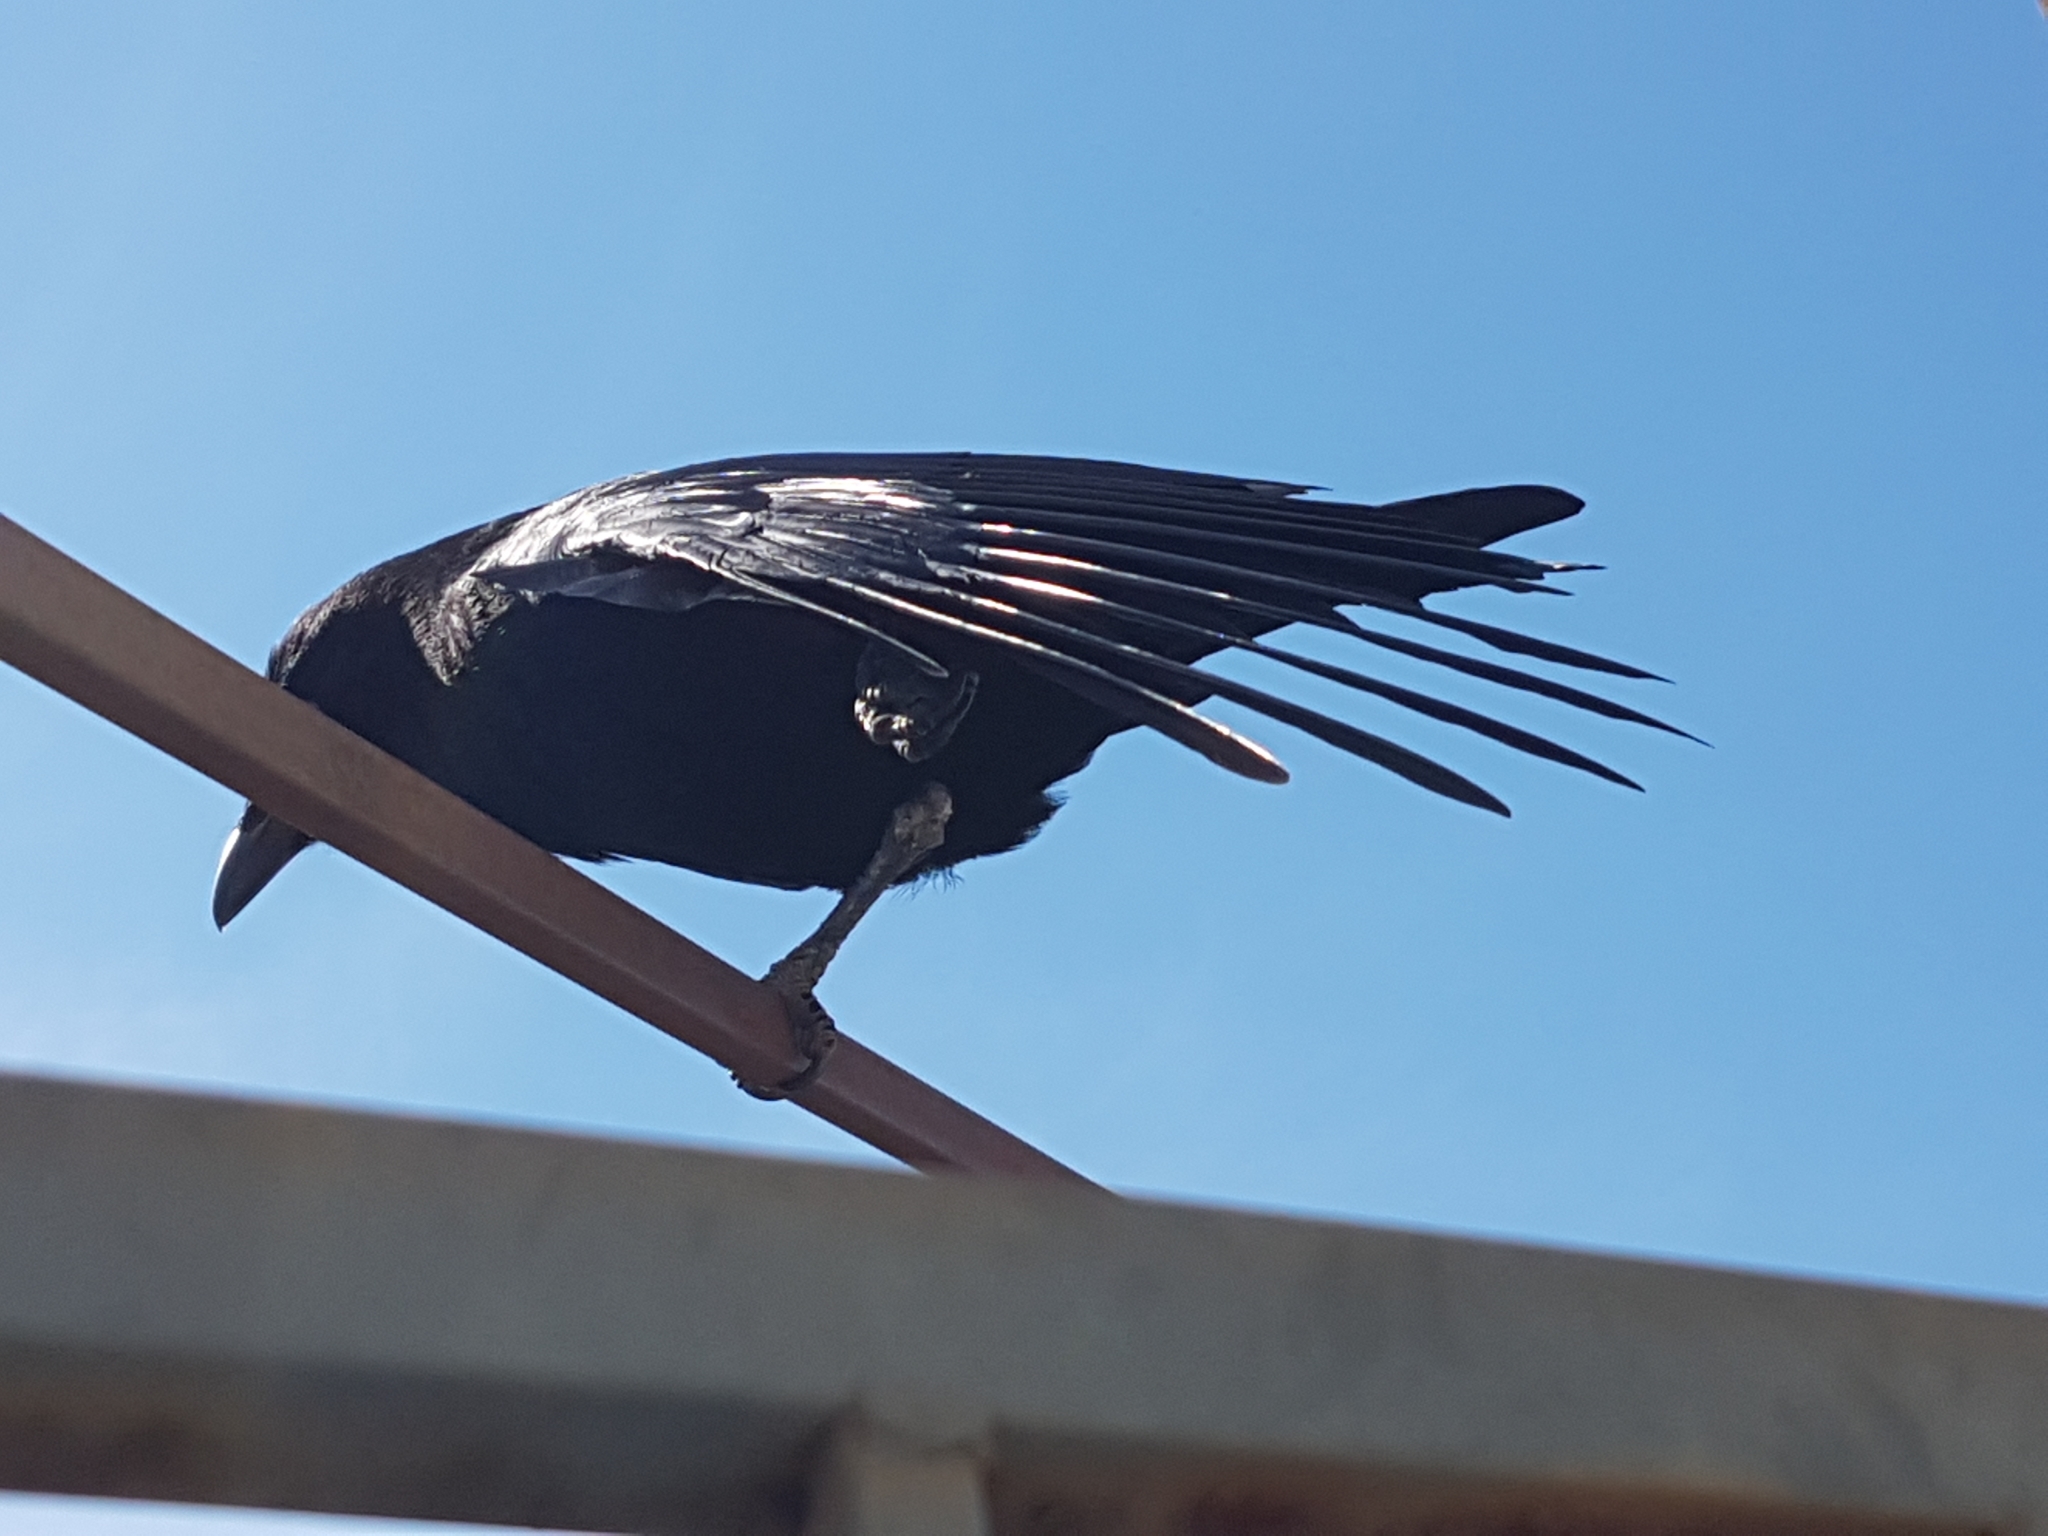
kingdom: Animalia
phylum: Chordata
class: Aves
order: Passeriformes
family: Corvidae
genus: Corvus
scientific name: Corvus brachyrhynchos
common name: American crow
